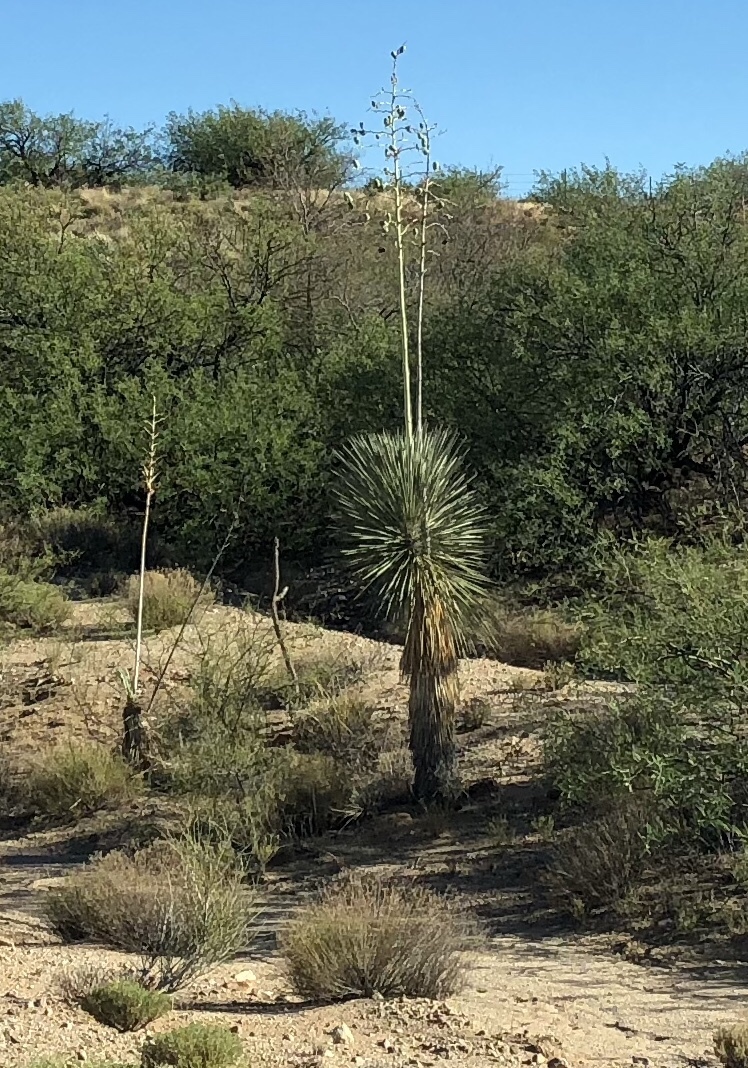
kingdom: Plantae
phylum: Tracheophyta
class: Liliopsida
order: Asparagales
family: Asparagaceae
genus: Yucca
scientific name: Yucca elata
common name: Palmella
